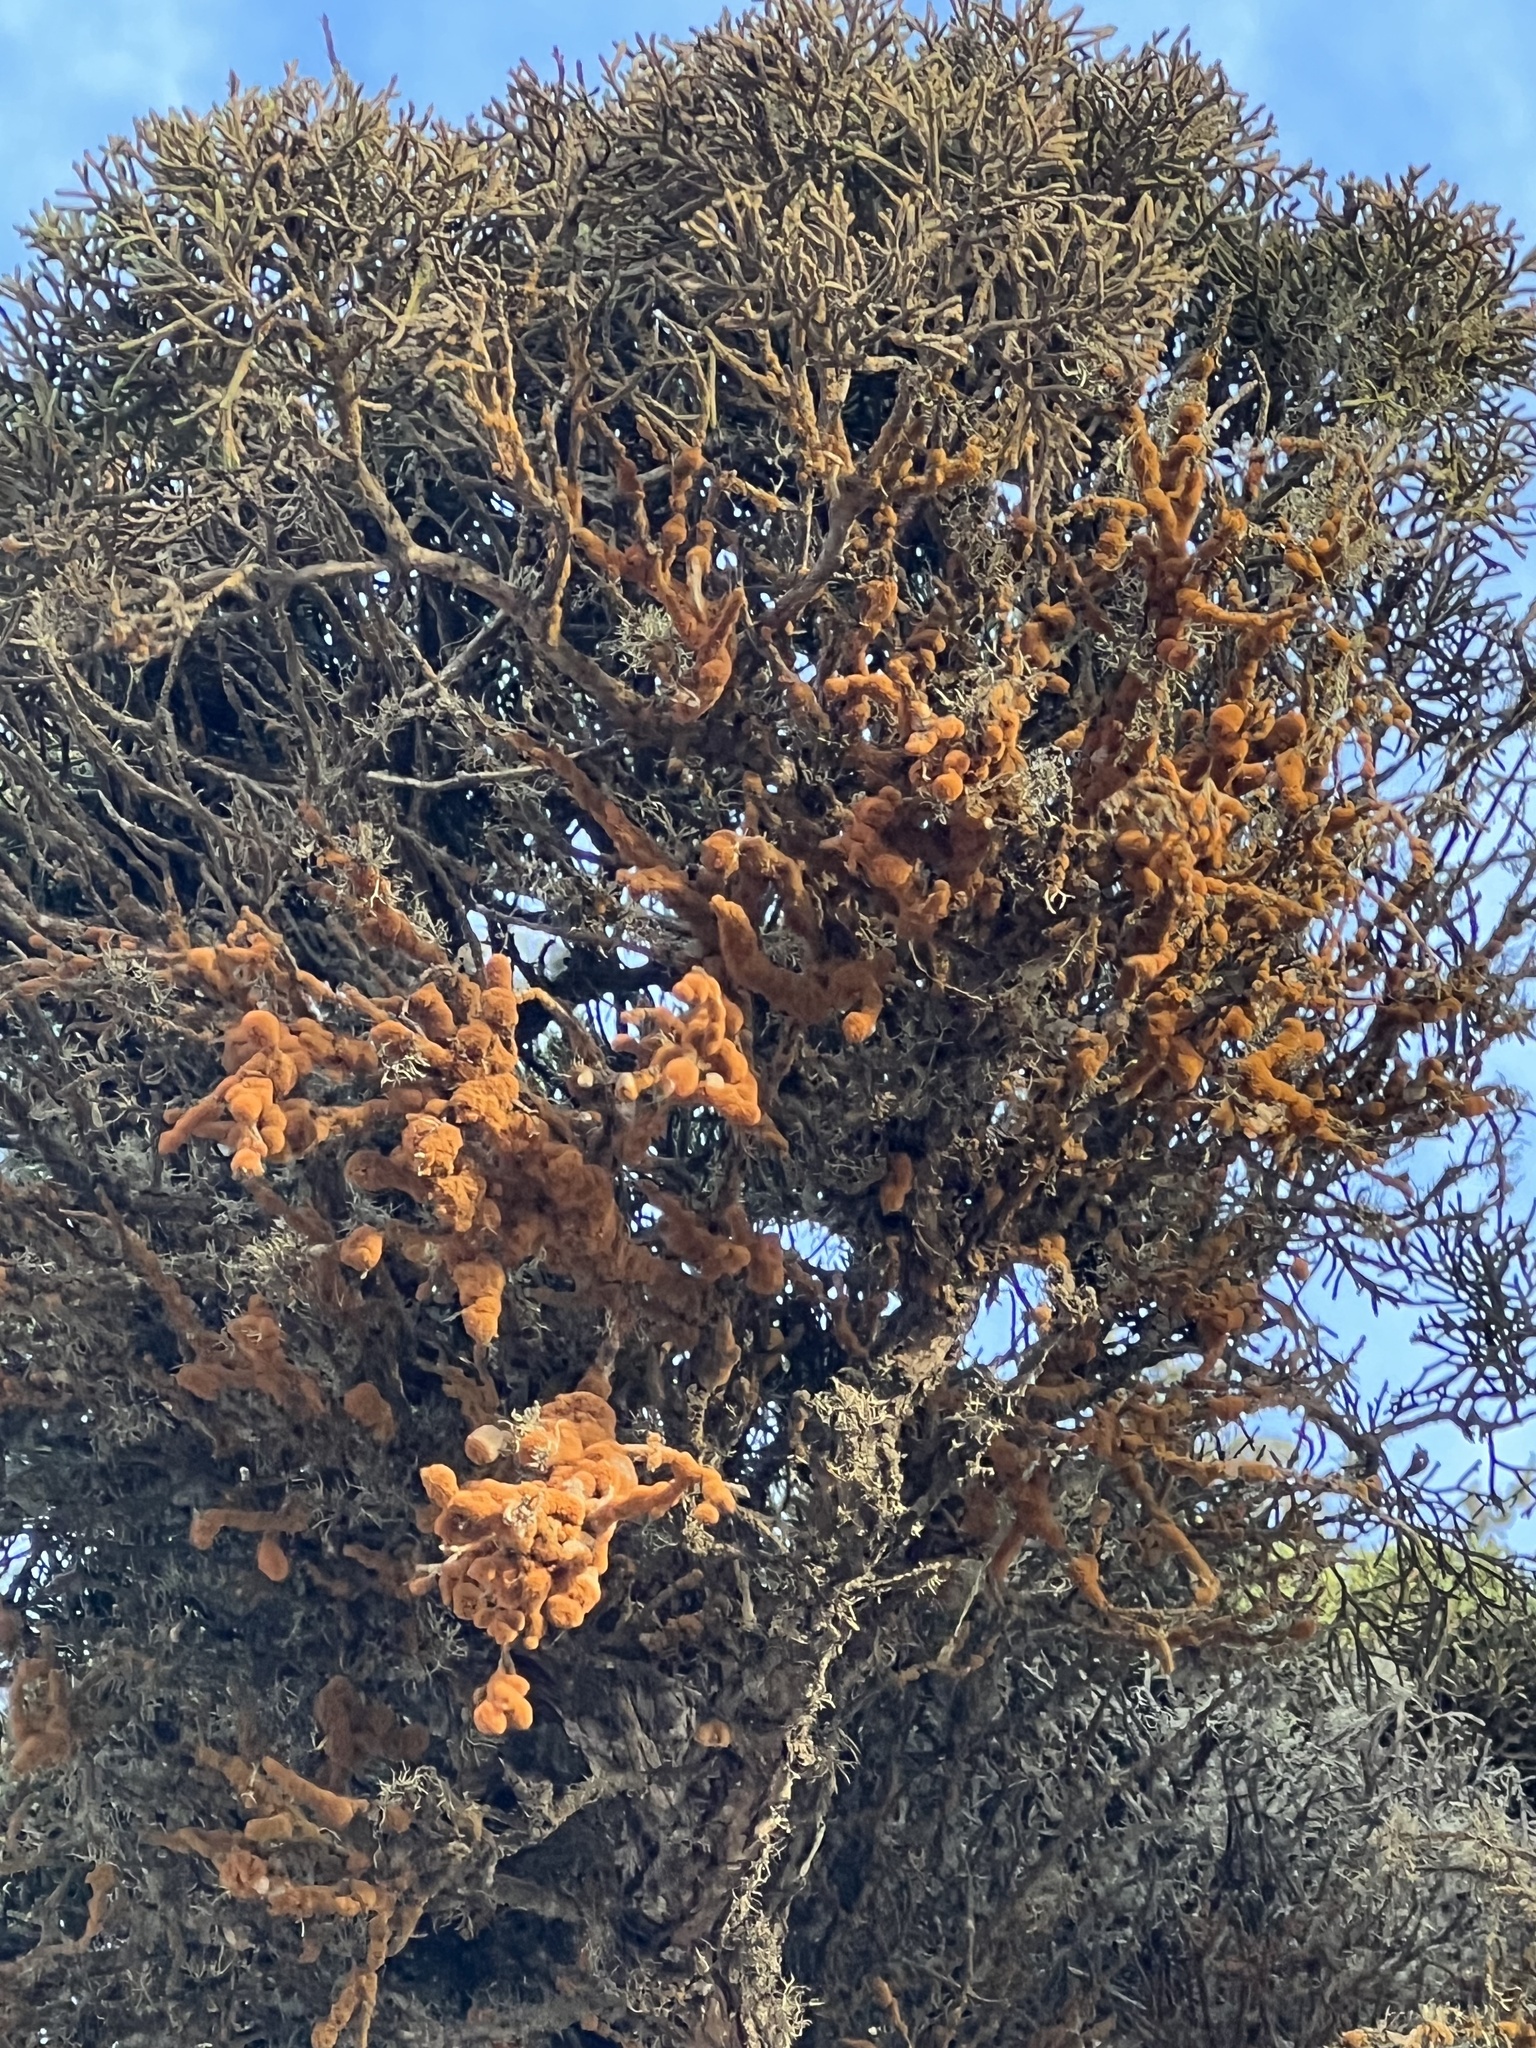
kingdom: Plantae
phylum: Chlorophyta
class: Ulvophyceae
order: Trentepohliales
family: Trentepohliaceae
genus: Trentepohlia
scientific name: Trentepohlia aurea
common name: Orange rock hair
